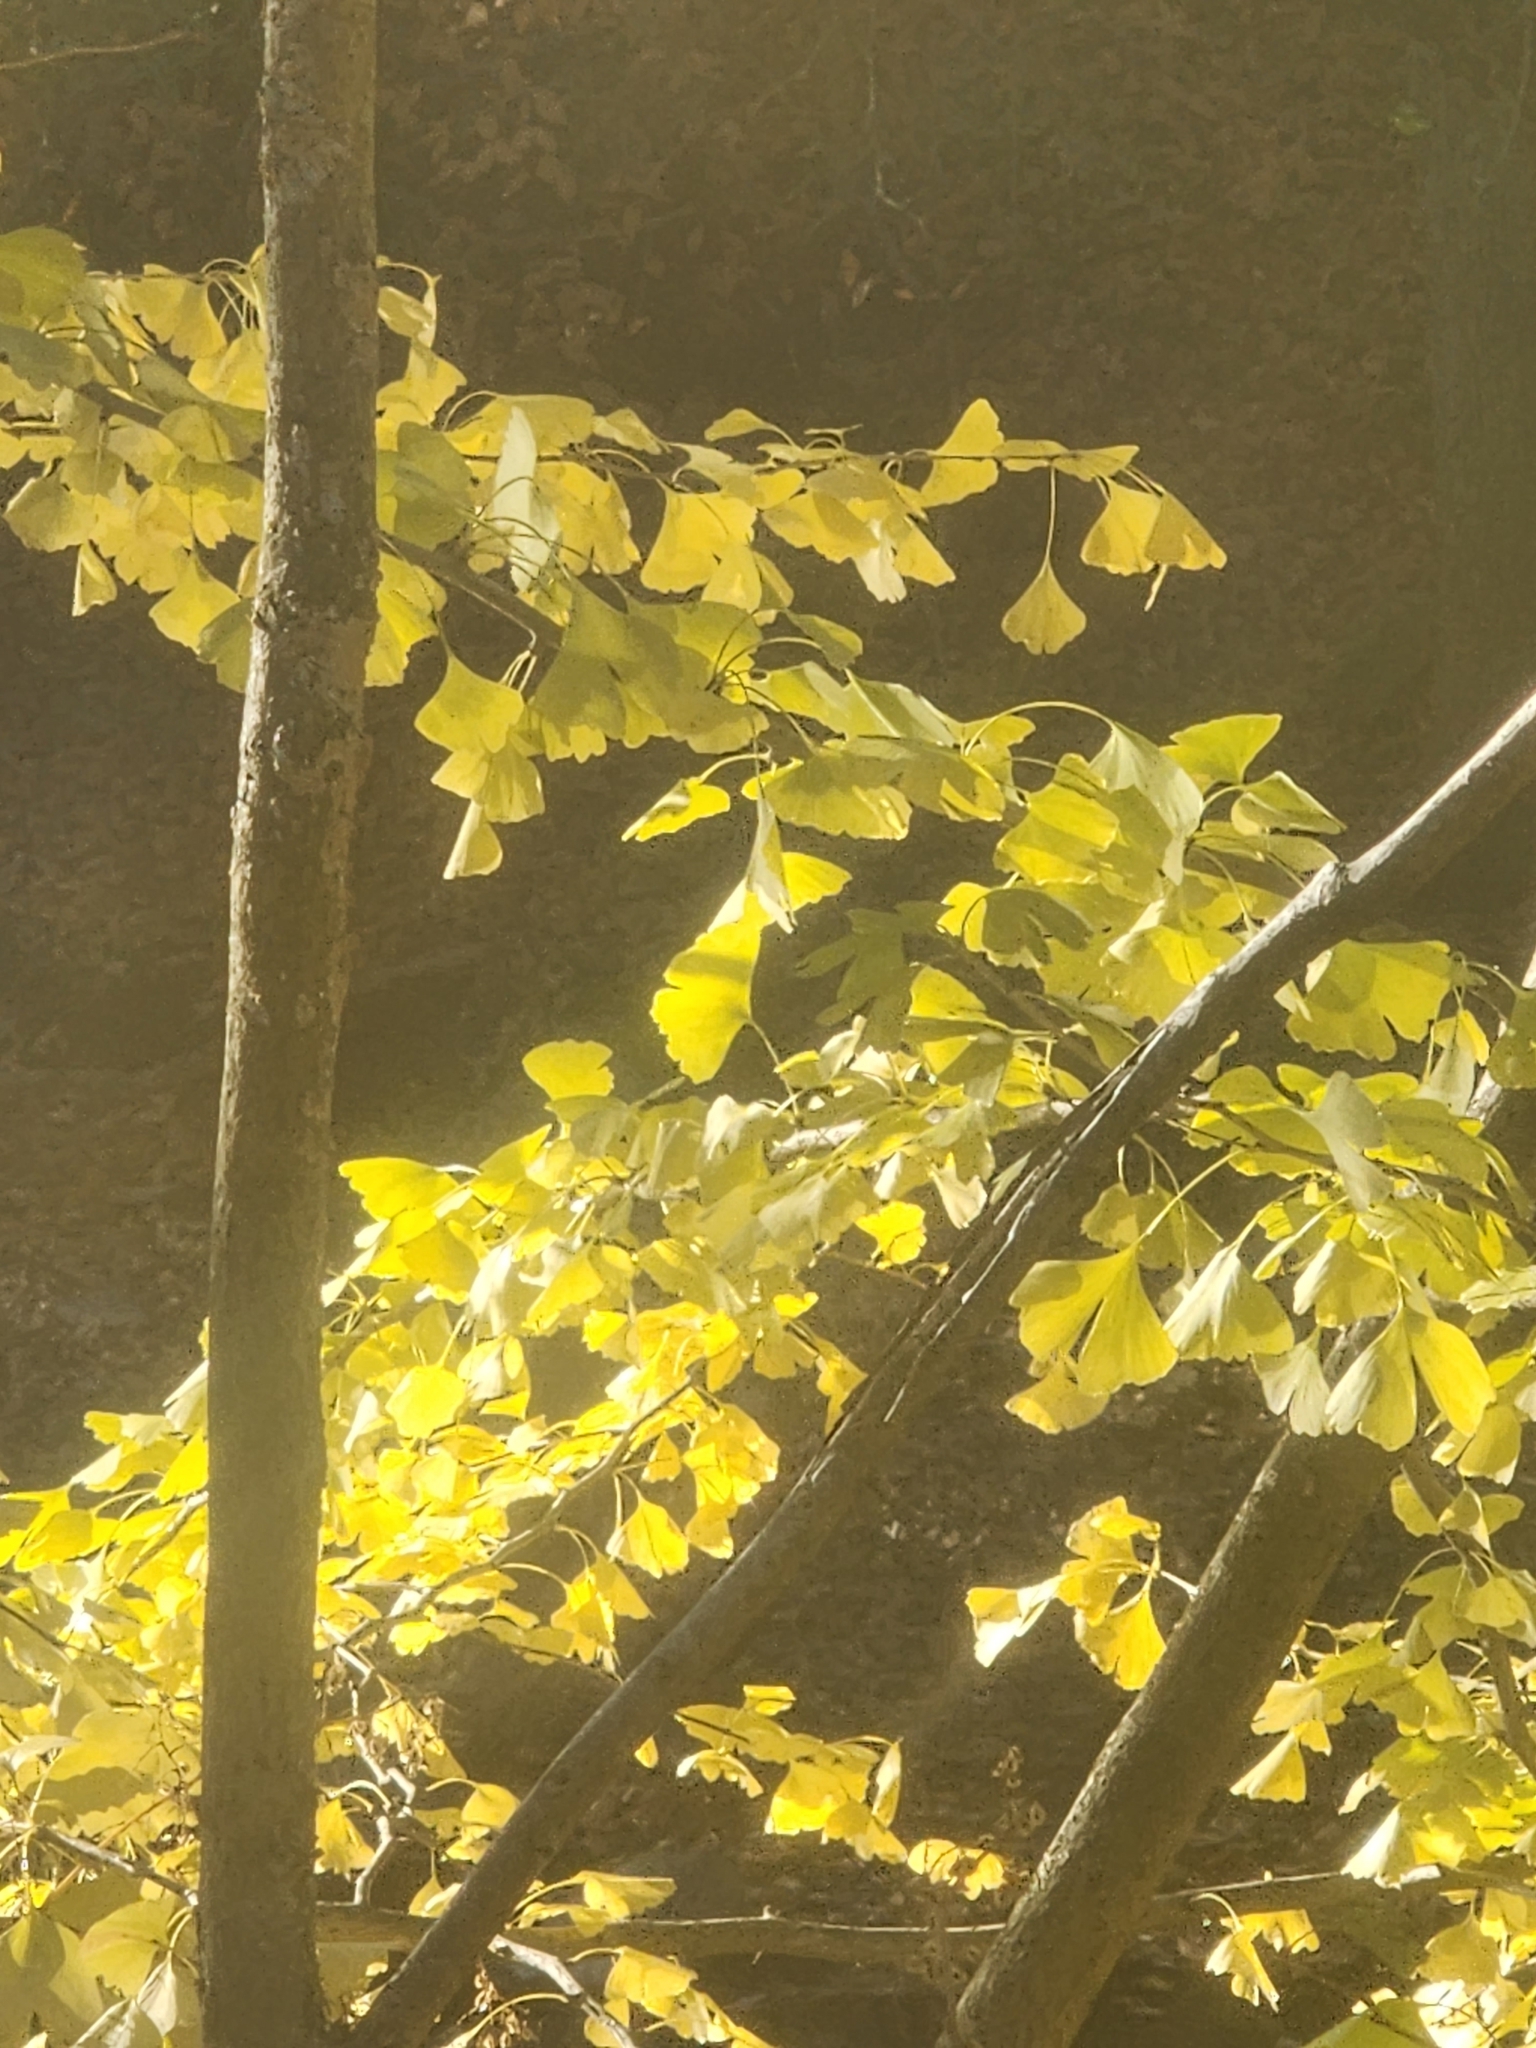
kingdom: Plantae
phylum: Tracheophyta
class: Ginkgoopsida
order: Ginkgoales
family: Ginkgoaceae
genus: Ginkgo
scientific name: Ginkgo biloba
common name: Ginkgo
